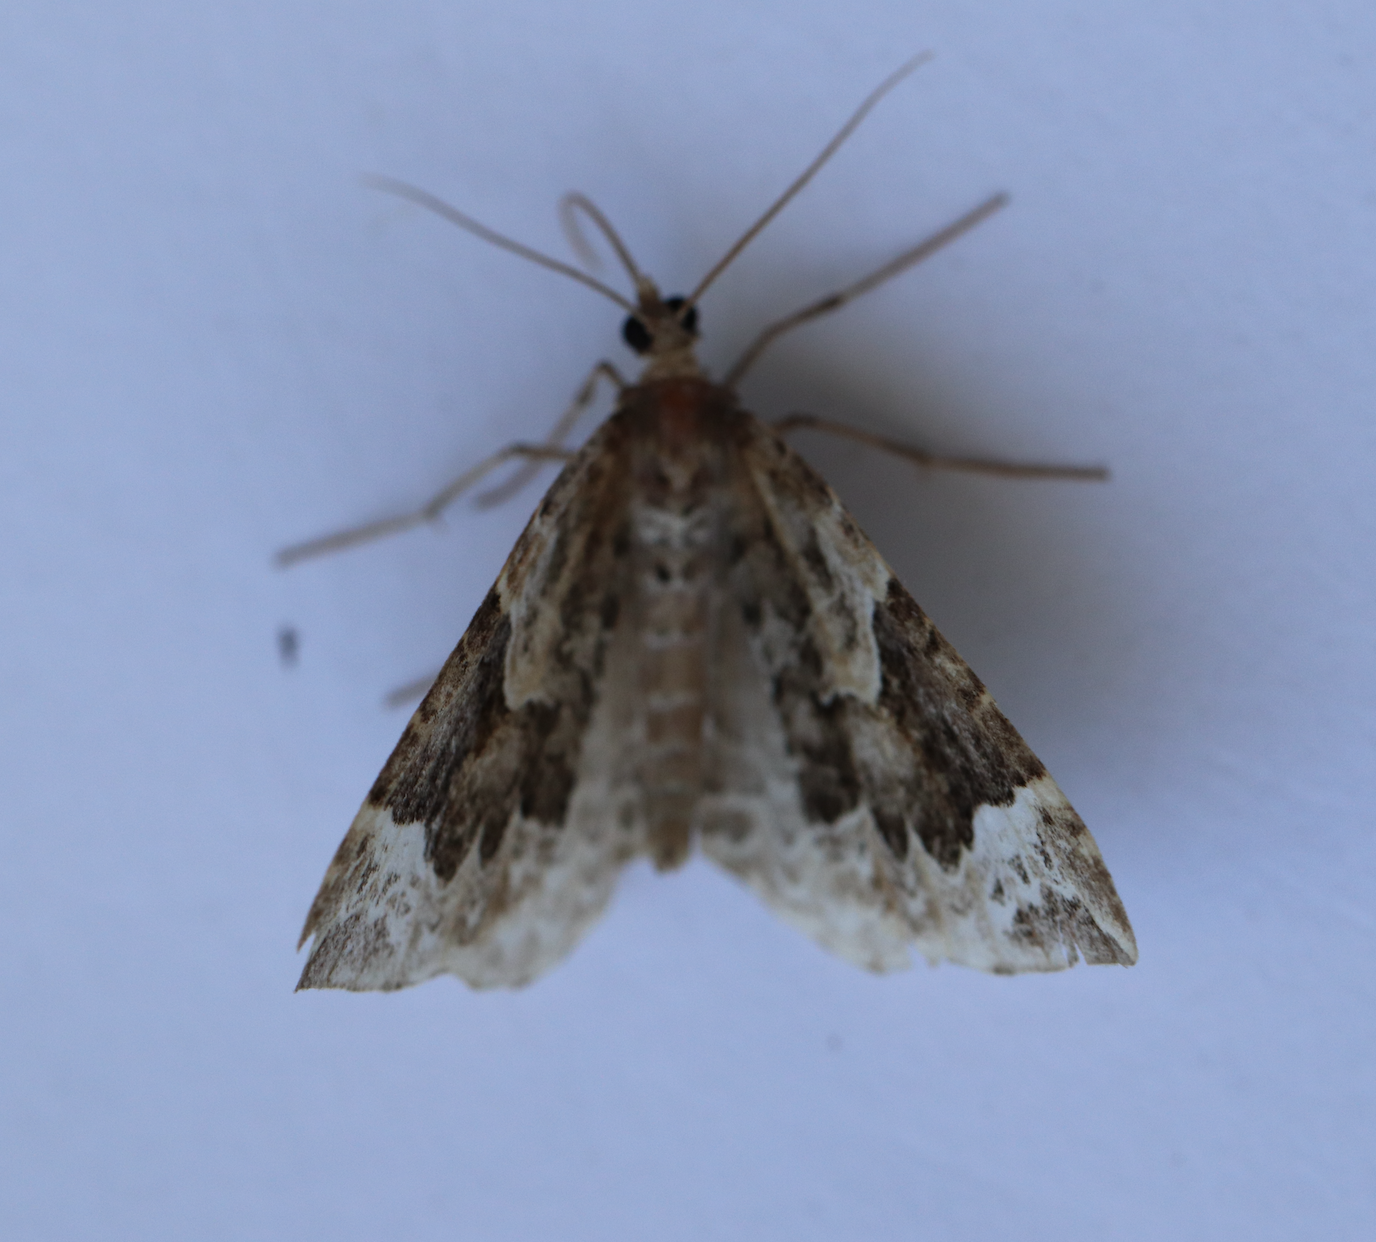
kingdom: Animalia
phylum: Arthropoda
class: Insecta
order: Lepidoptera
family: Geometridae
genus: Eulithis
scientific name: Eulithis prunata
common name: Phoenix
